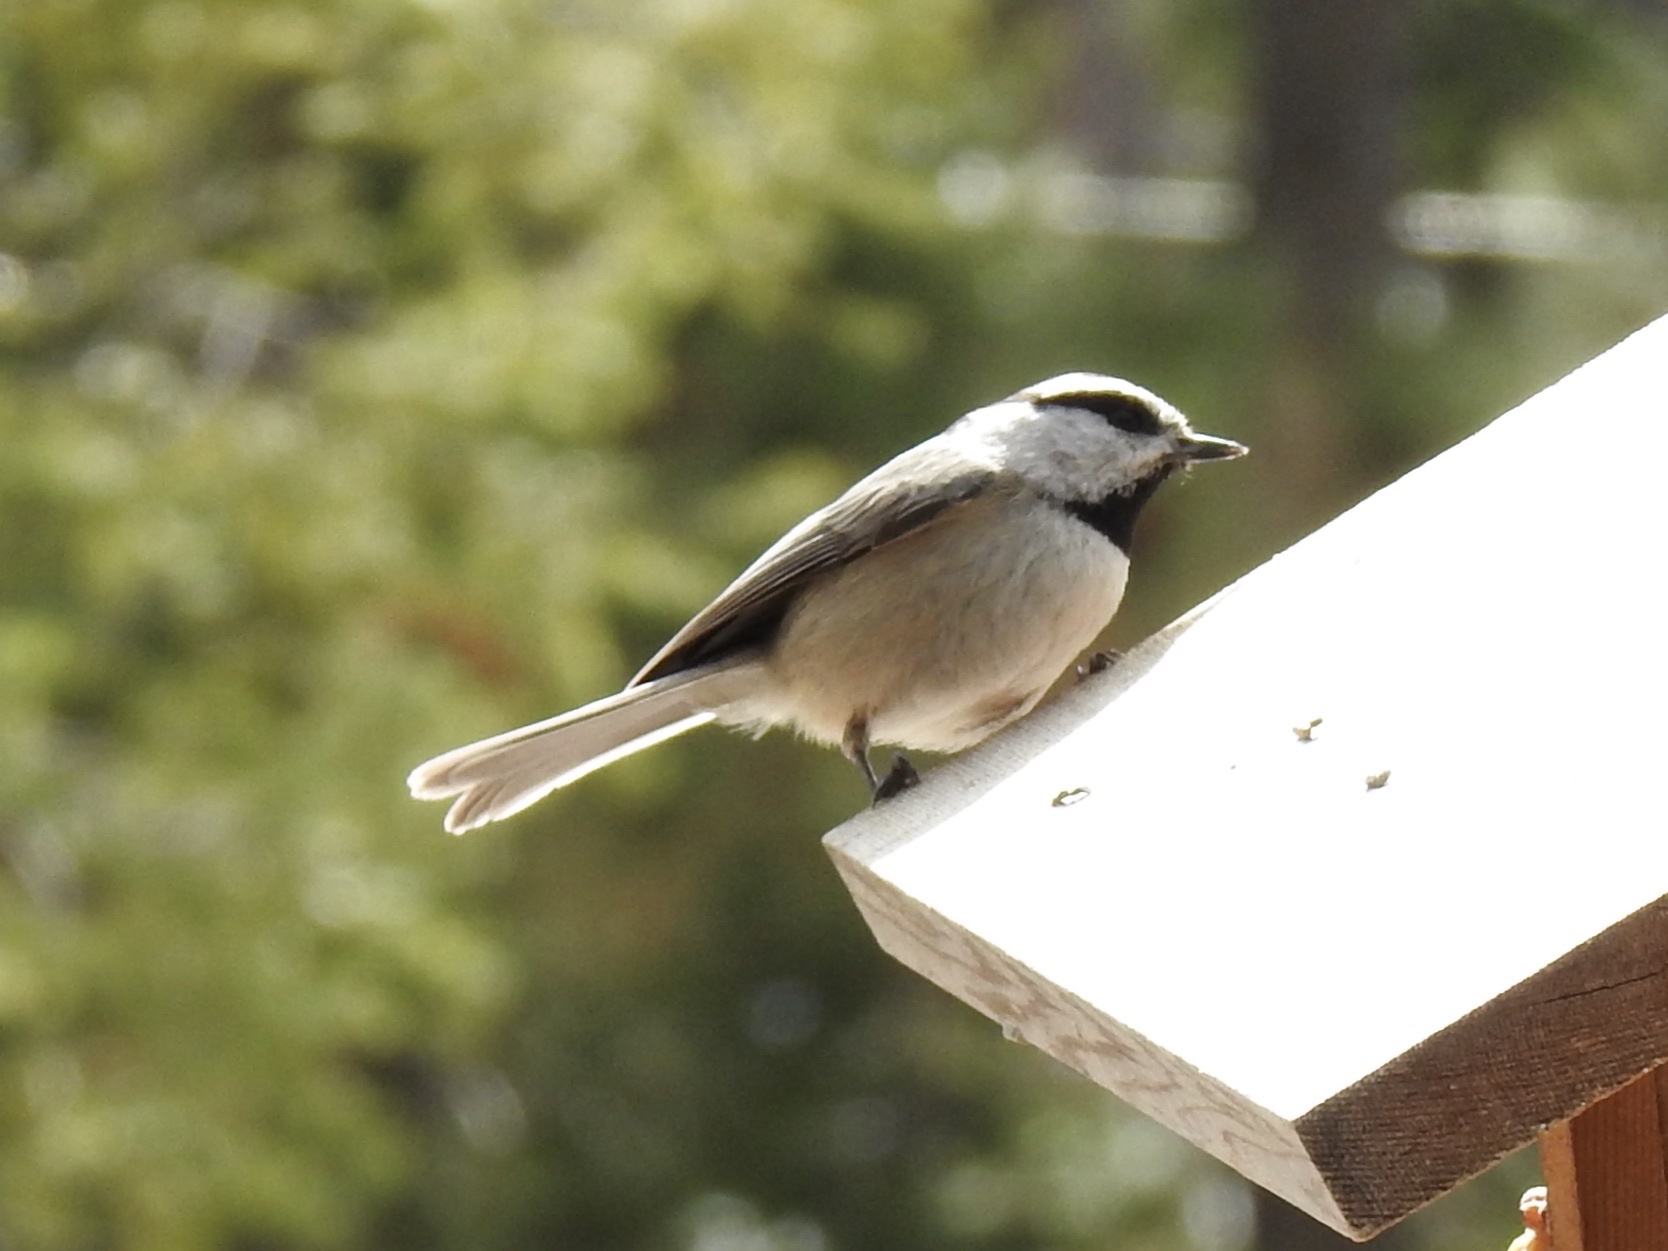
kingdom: Animalia
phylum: Chordata
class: Aves
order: Passeriformes
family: Paridae
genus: Poecile
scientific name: Poecile gambeli
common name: Mountain chickadee
